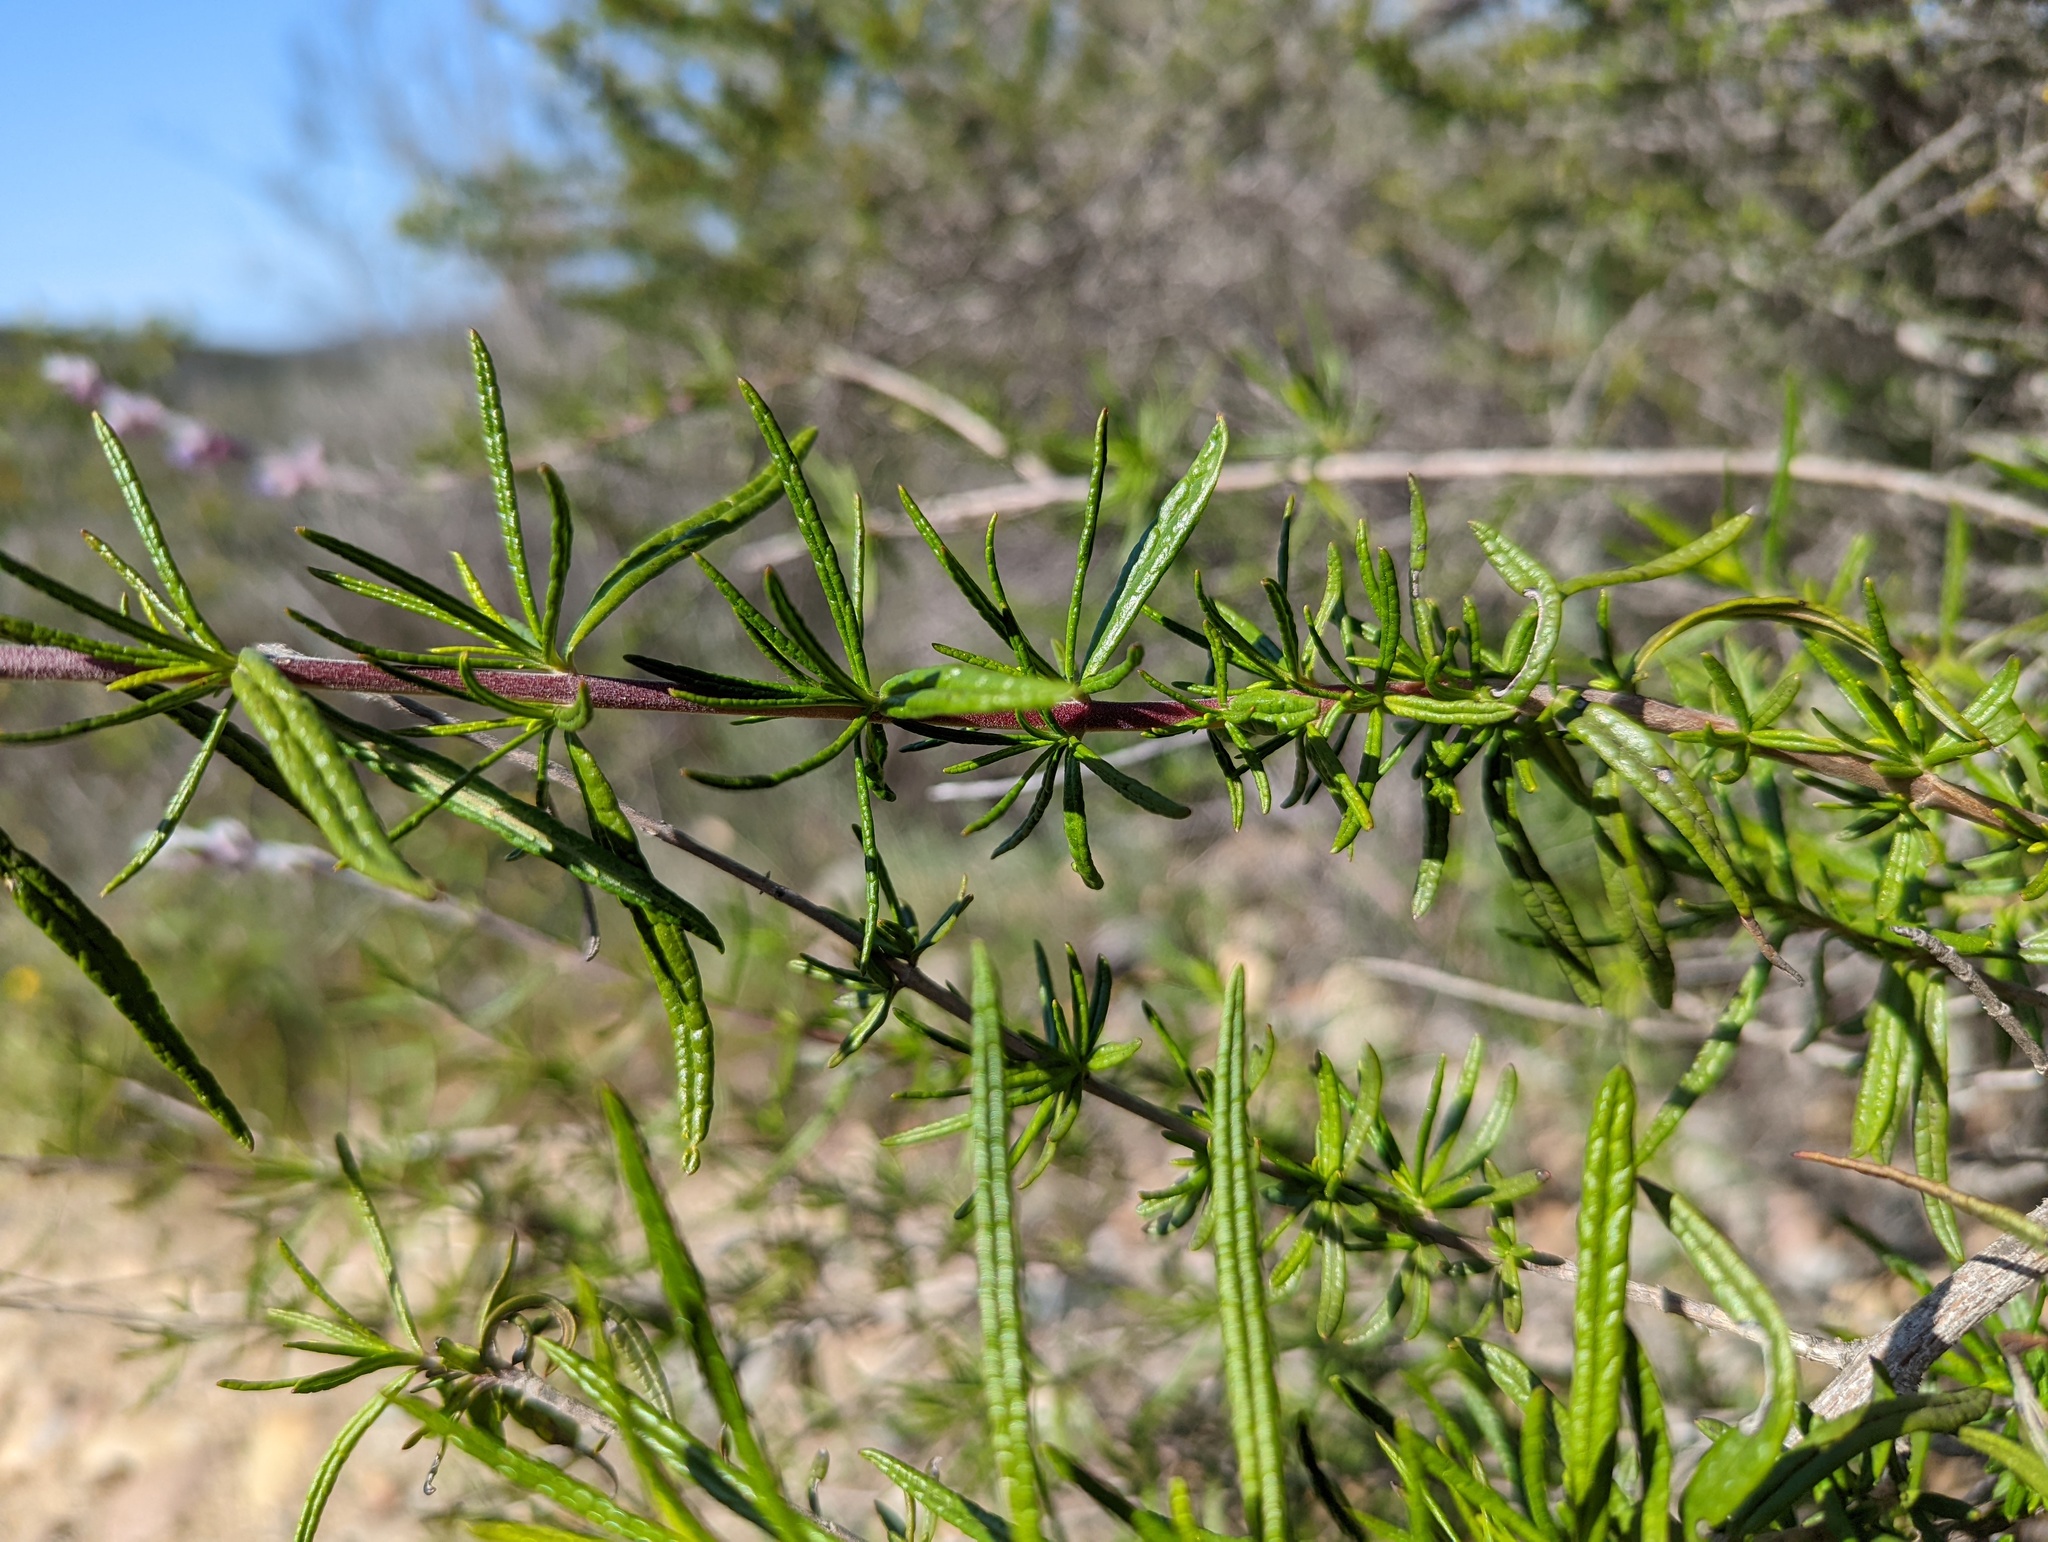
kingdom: Plantae
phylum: Tracheophyta
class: Magnoliopsida
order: Lamiales
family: Lamiaceae
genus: Trichostema
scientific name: Trichostema lanatum
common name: Woolly bluecurls
